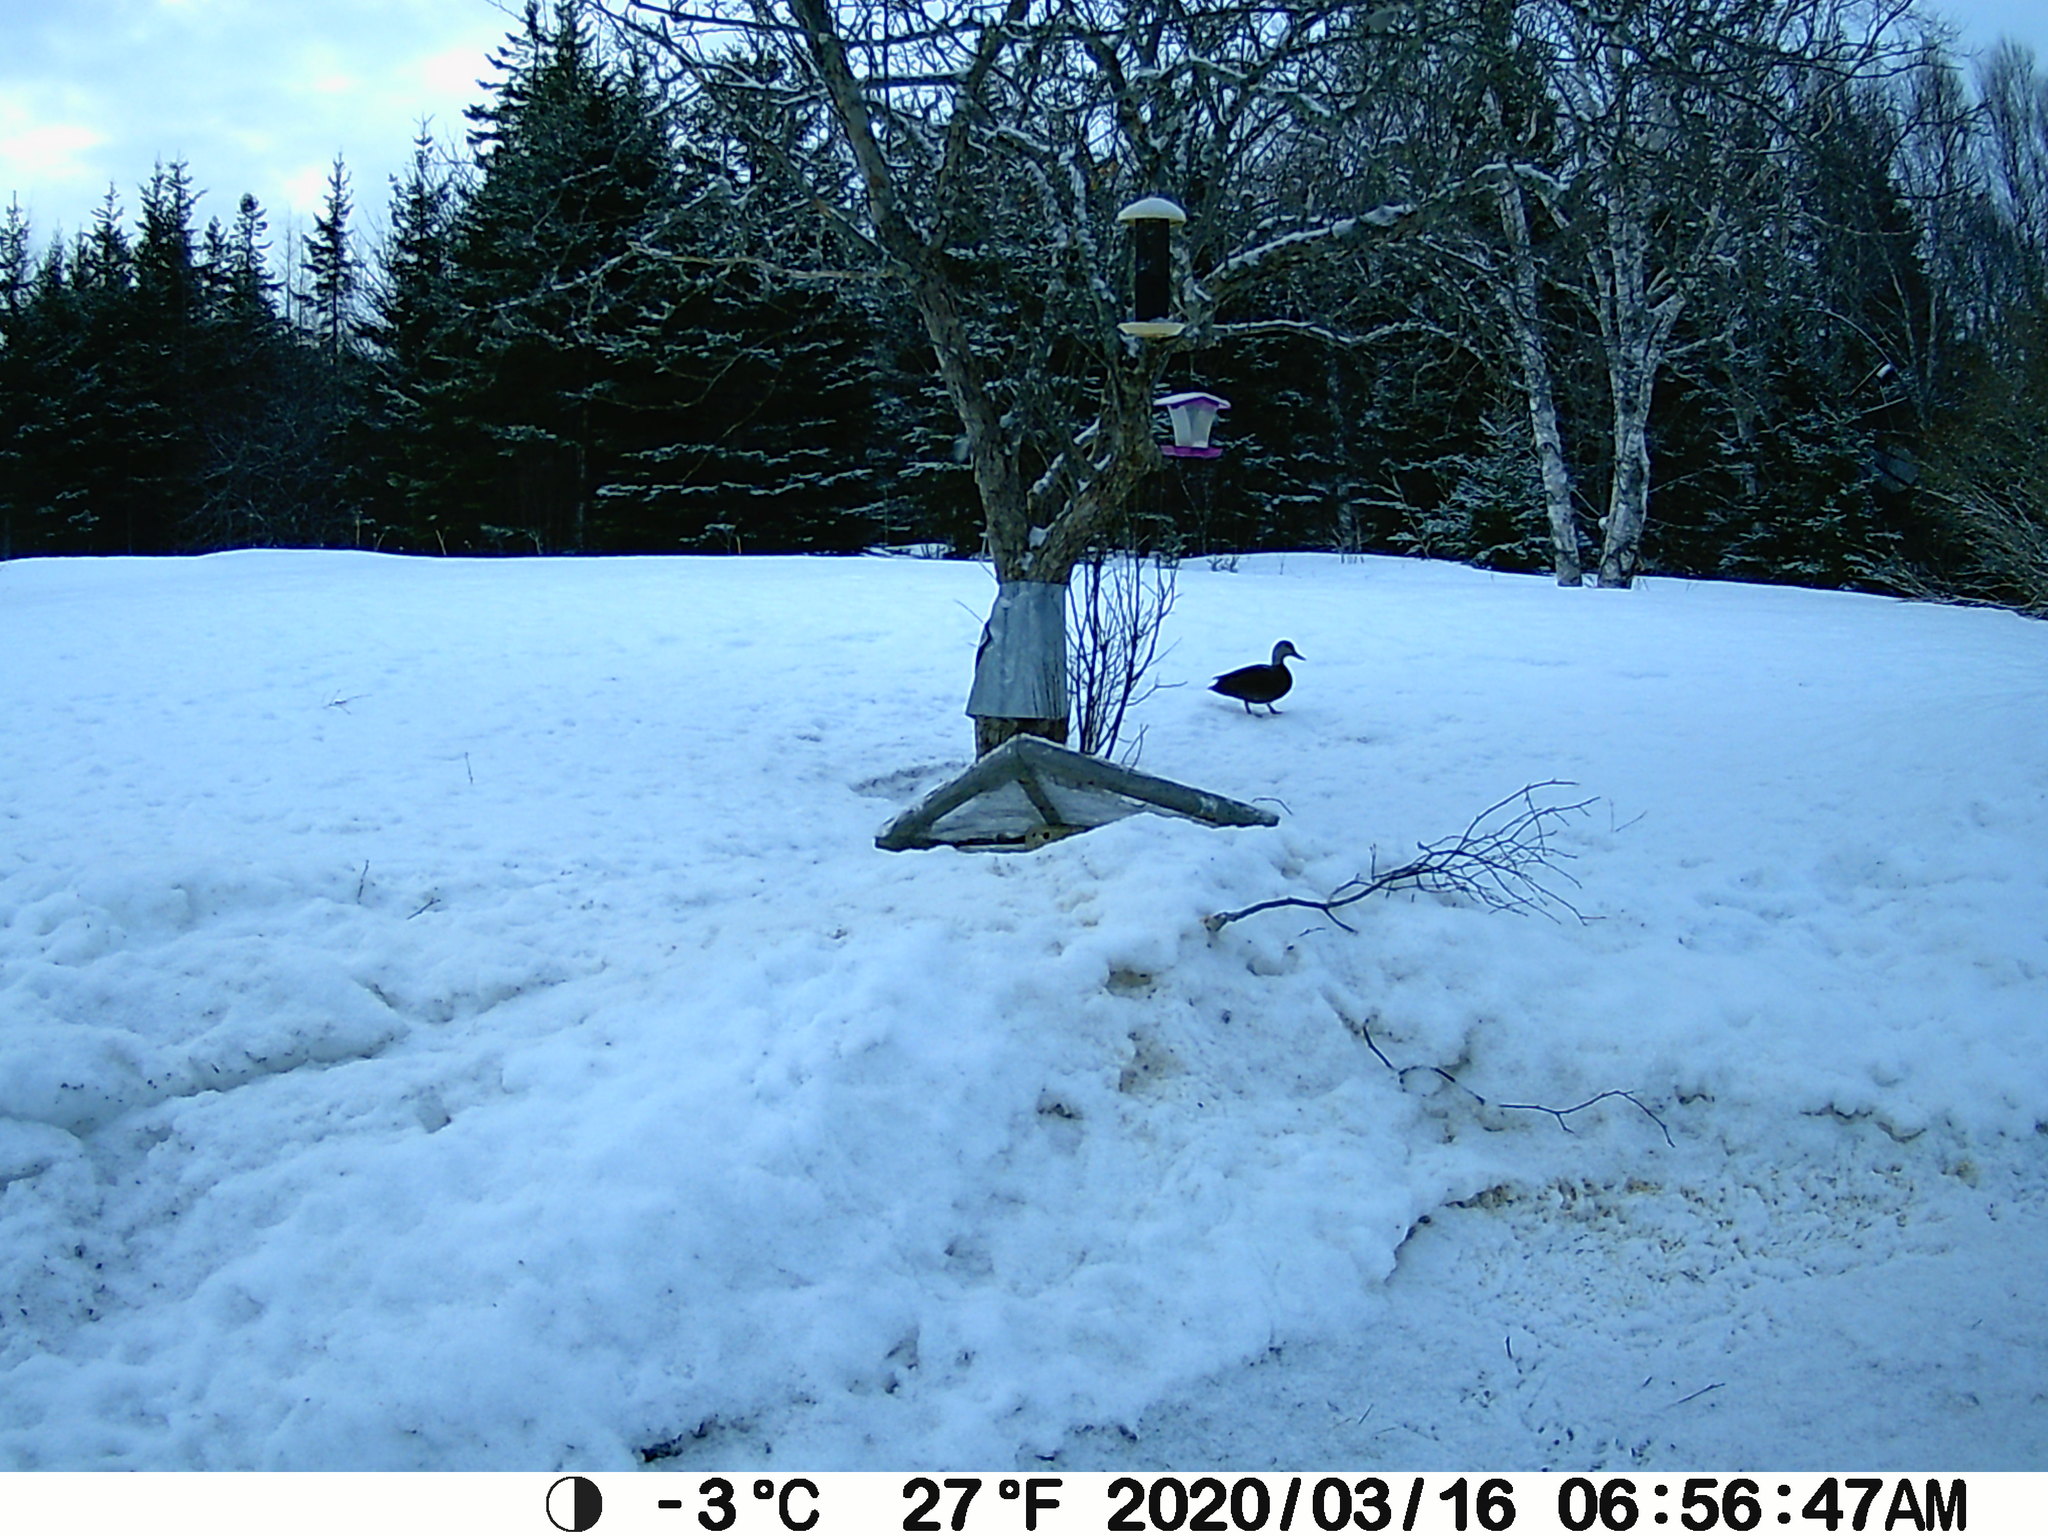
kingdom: Animalia
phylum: Chordata
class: Aves
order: Anseriformes
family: Anatidae
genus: Anas
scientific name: Anas rubripes
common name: American black duck
